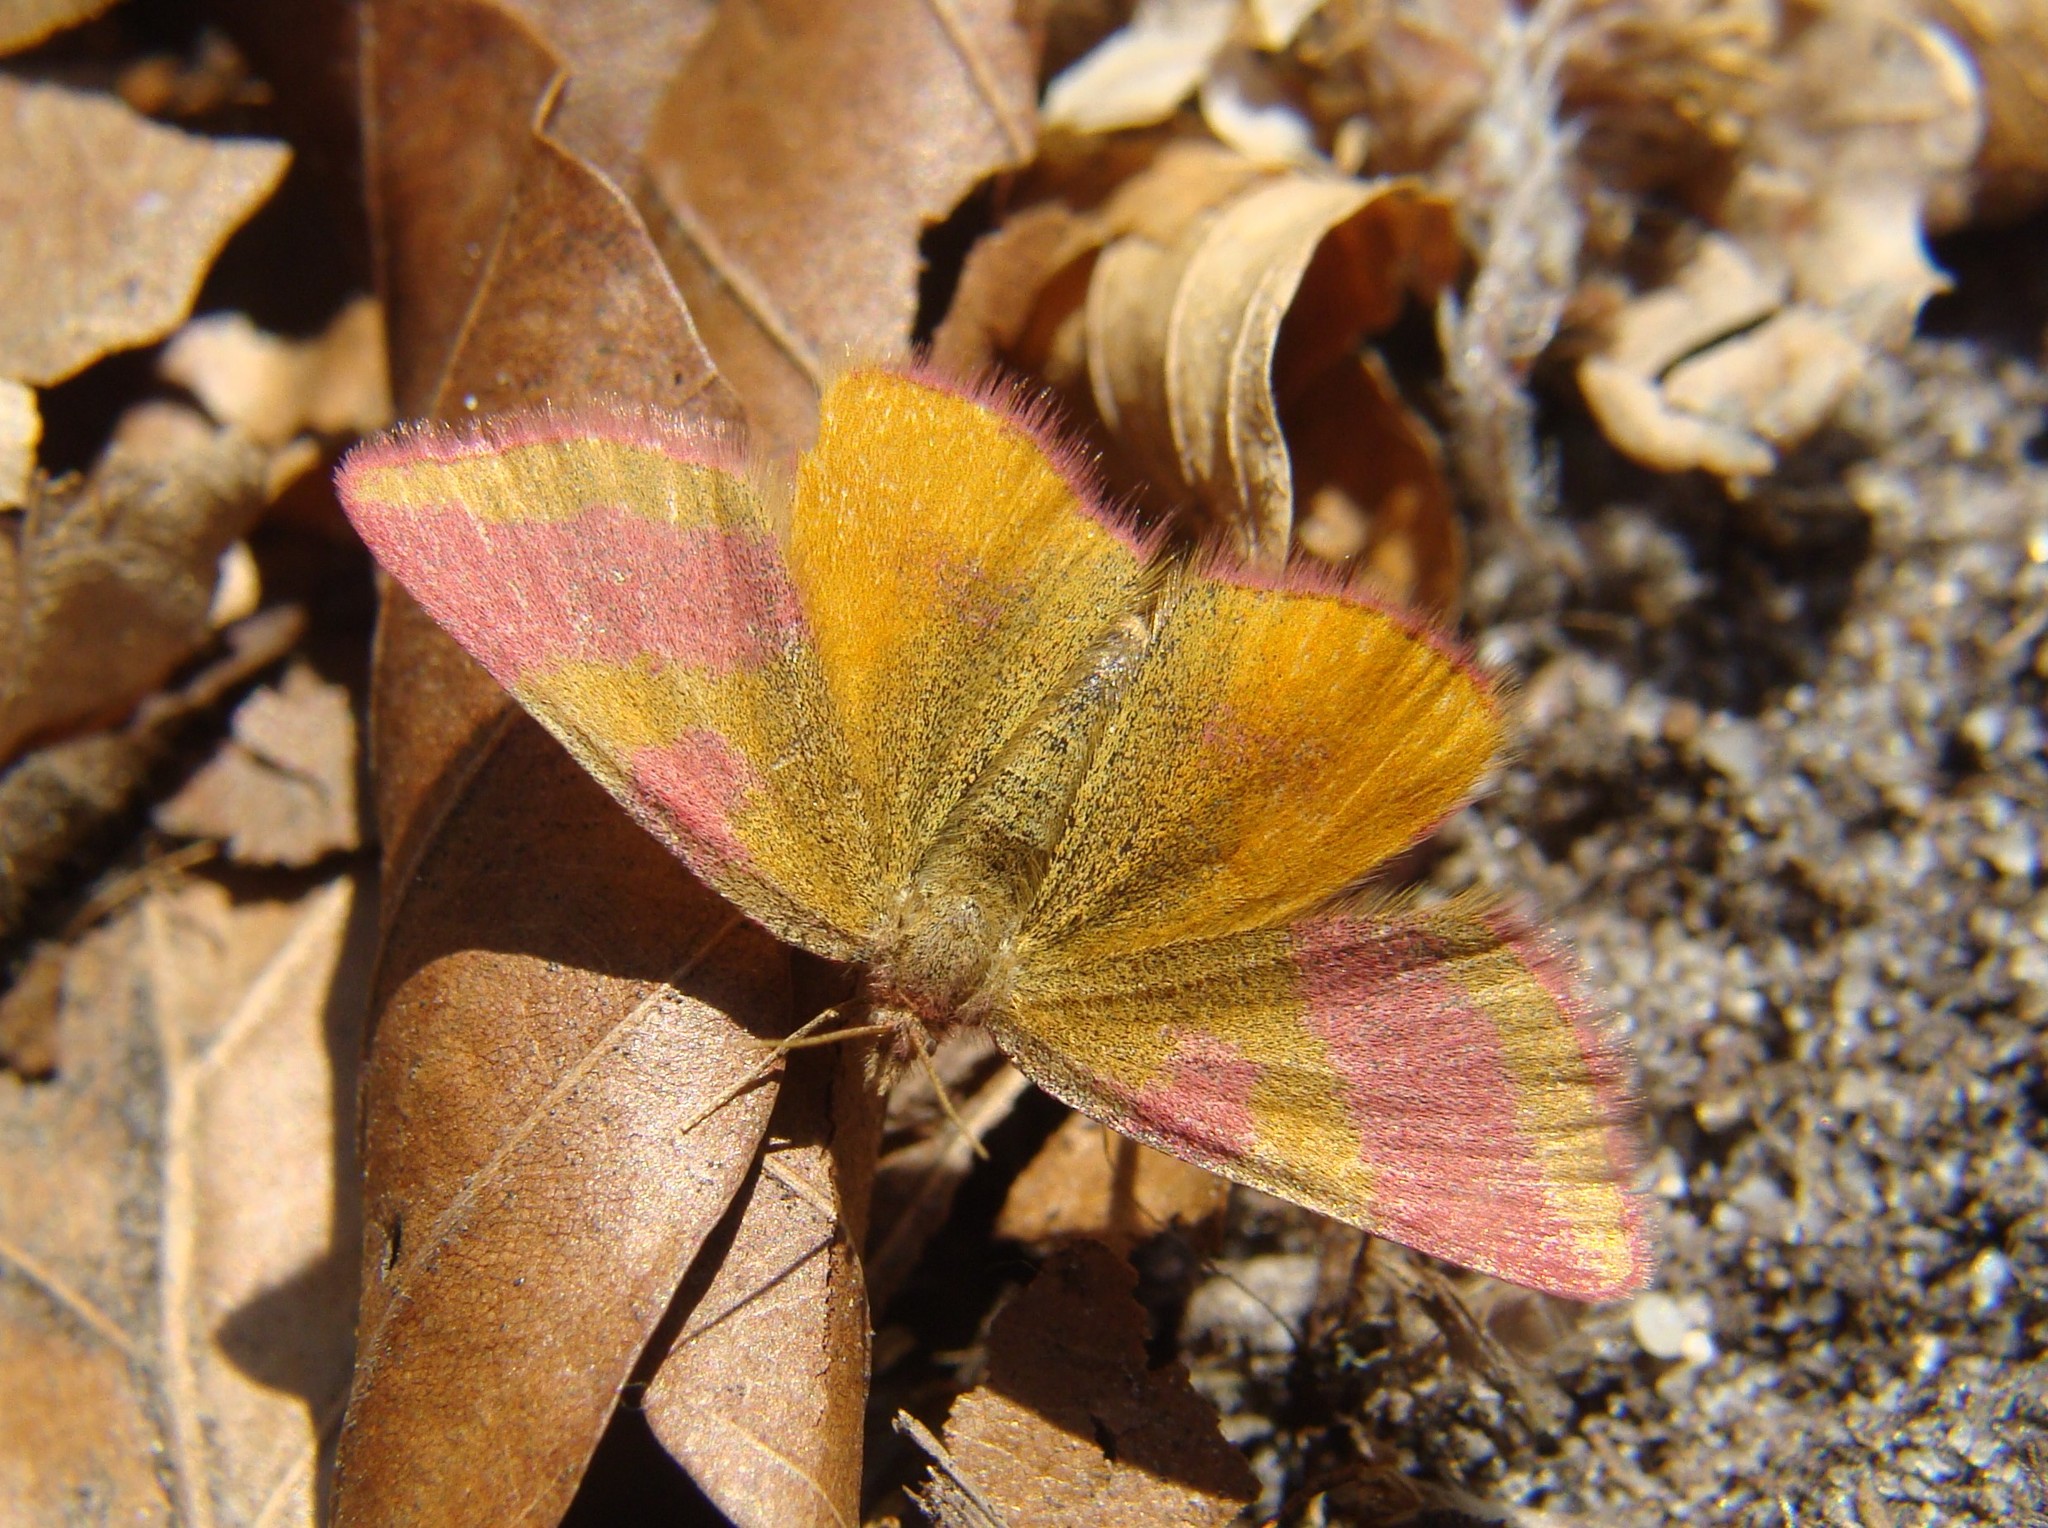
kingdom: Animalia
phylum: Arthropoda
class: Insecta
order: Lepidoptera
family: Geometridae
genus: Lythria
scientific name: Lythria cruentaria
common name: Purple-barred yellow
